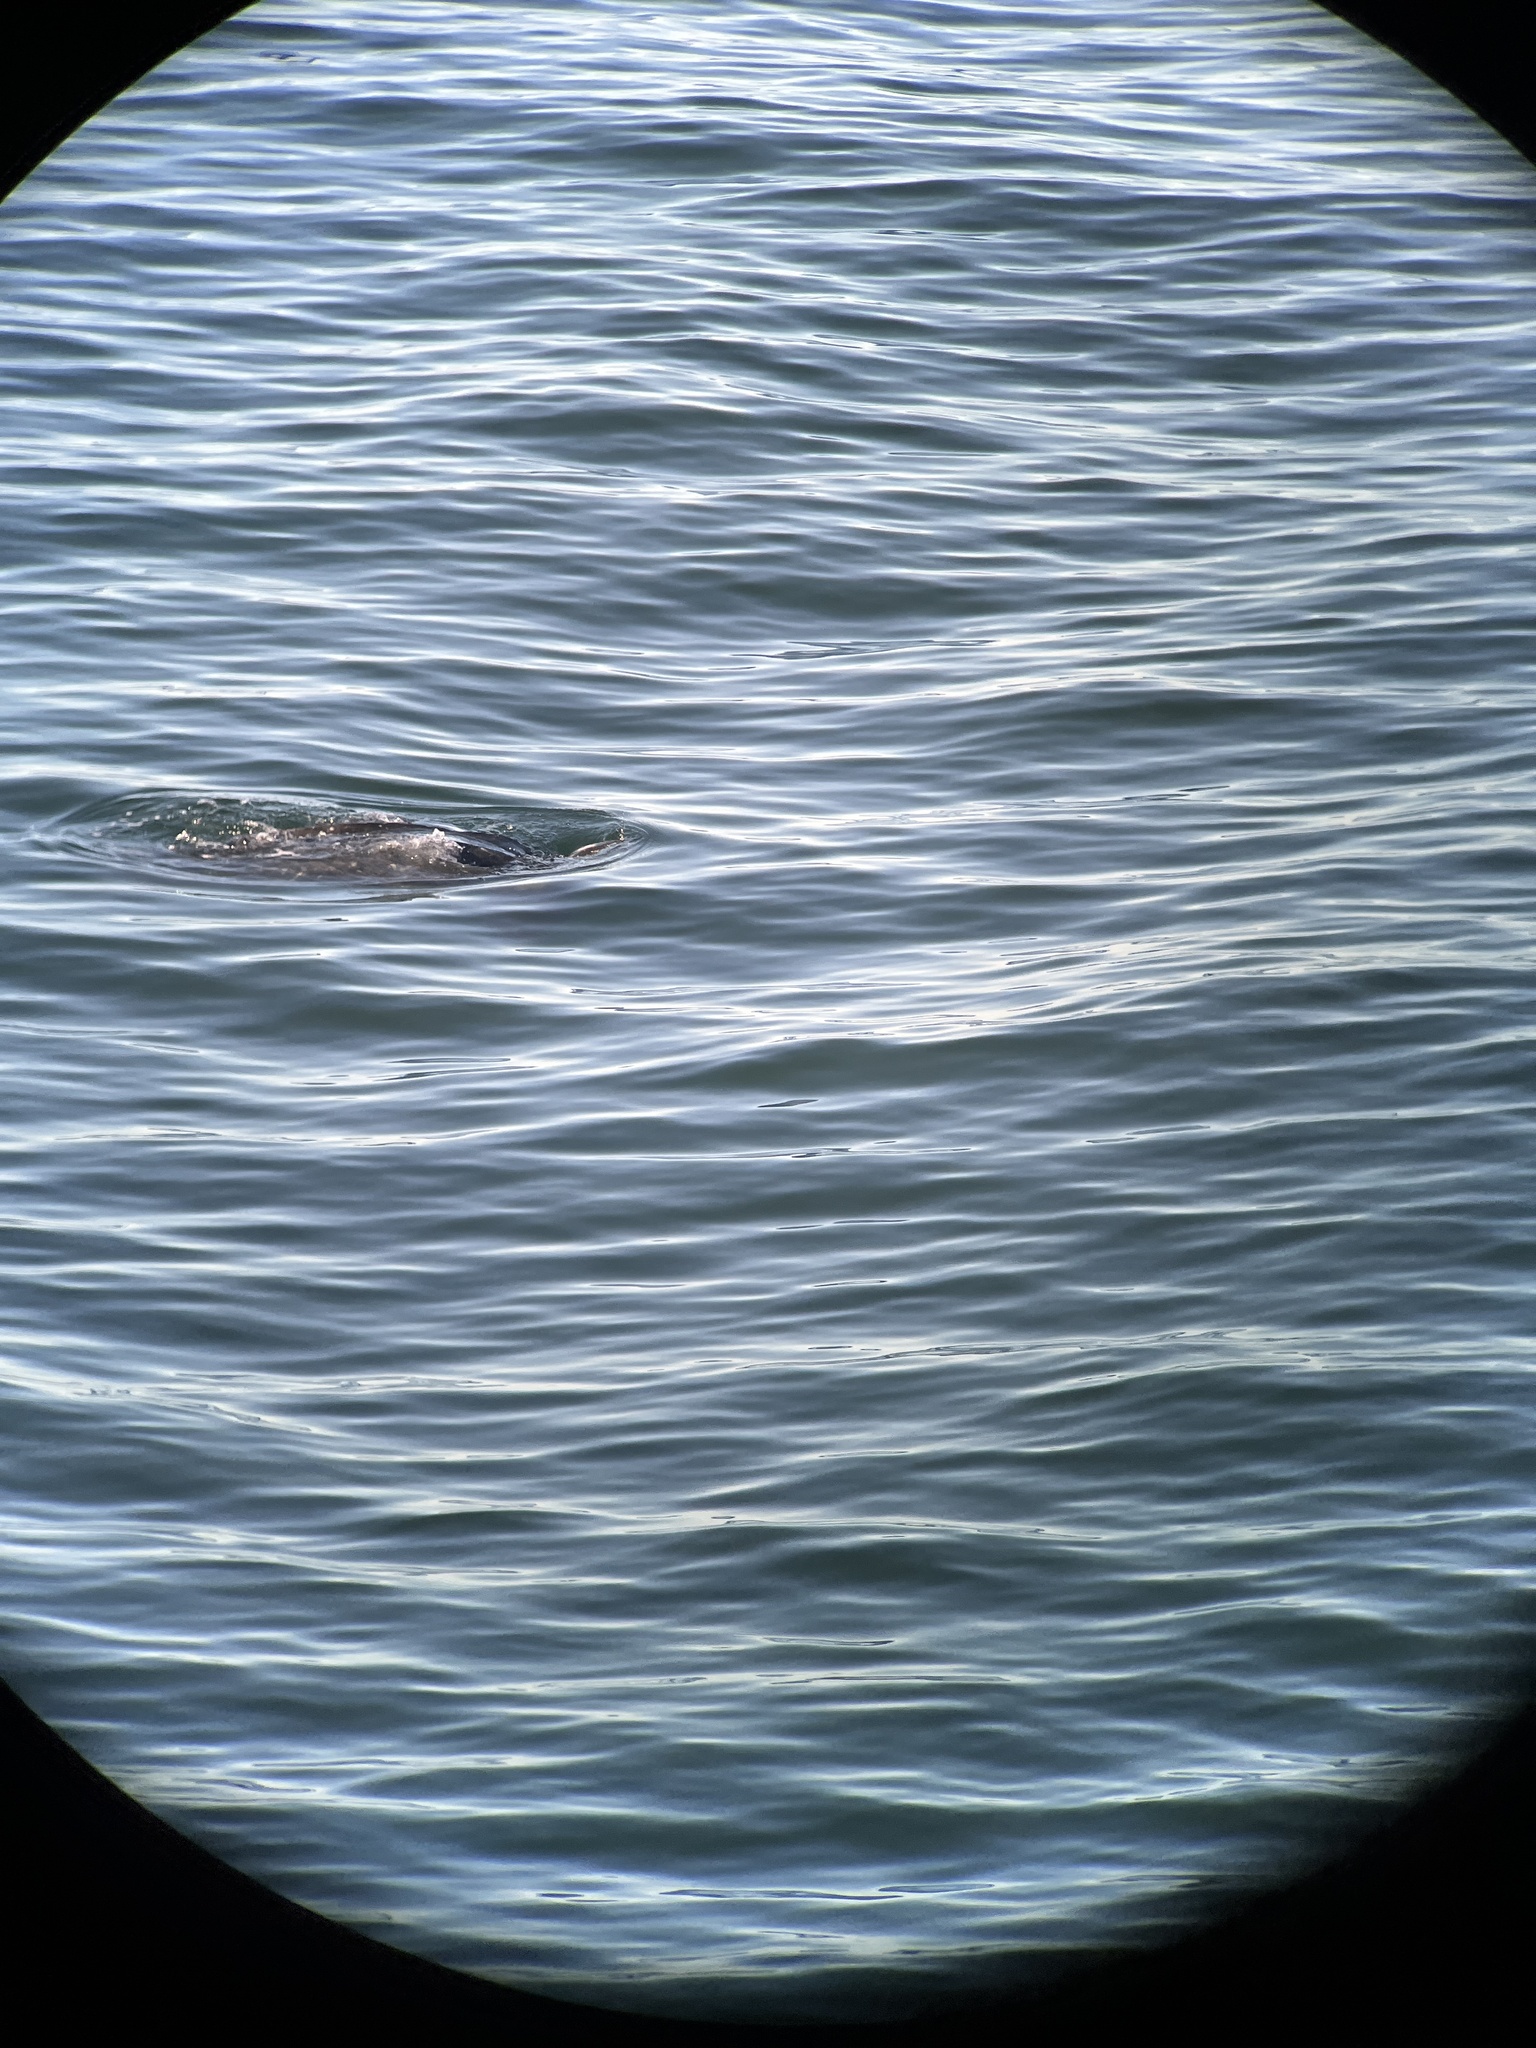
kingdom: Animalia
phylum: Chordata
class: Testudines
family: Dermochelyidae
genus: Dermochelys
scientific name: Dermochelys coriacea
